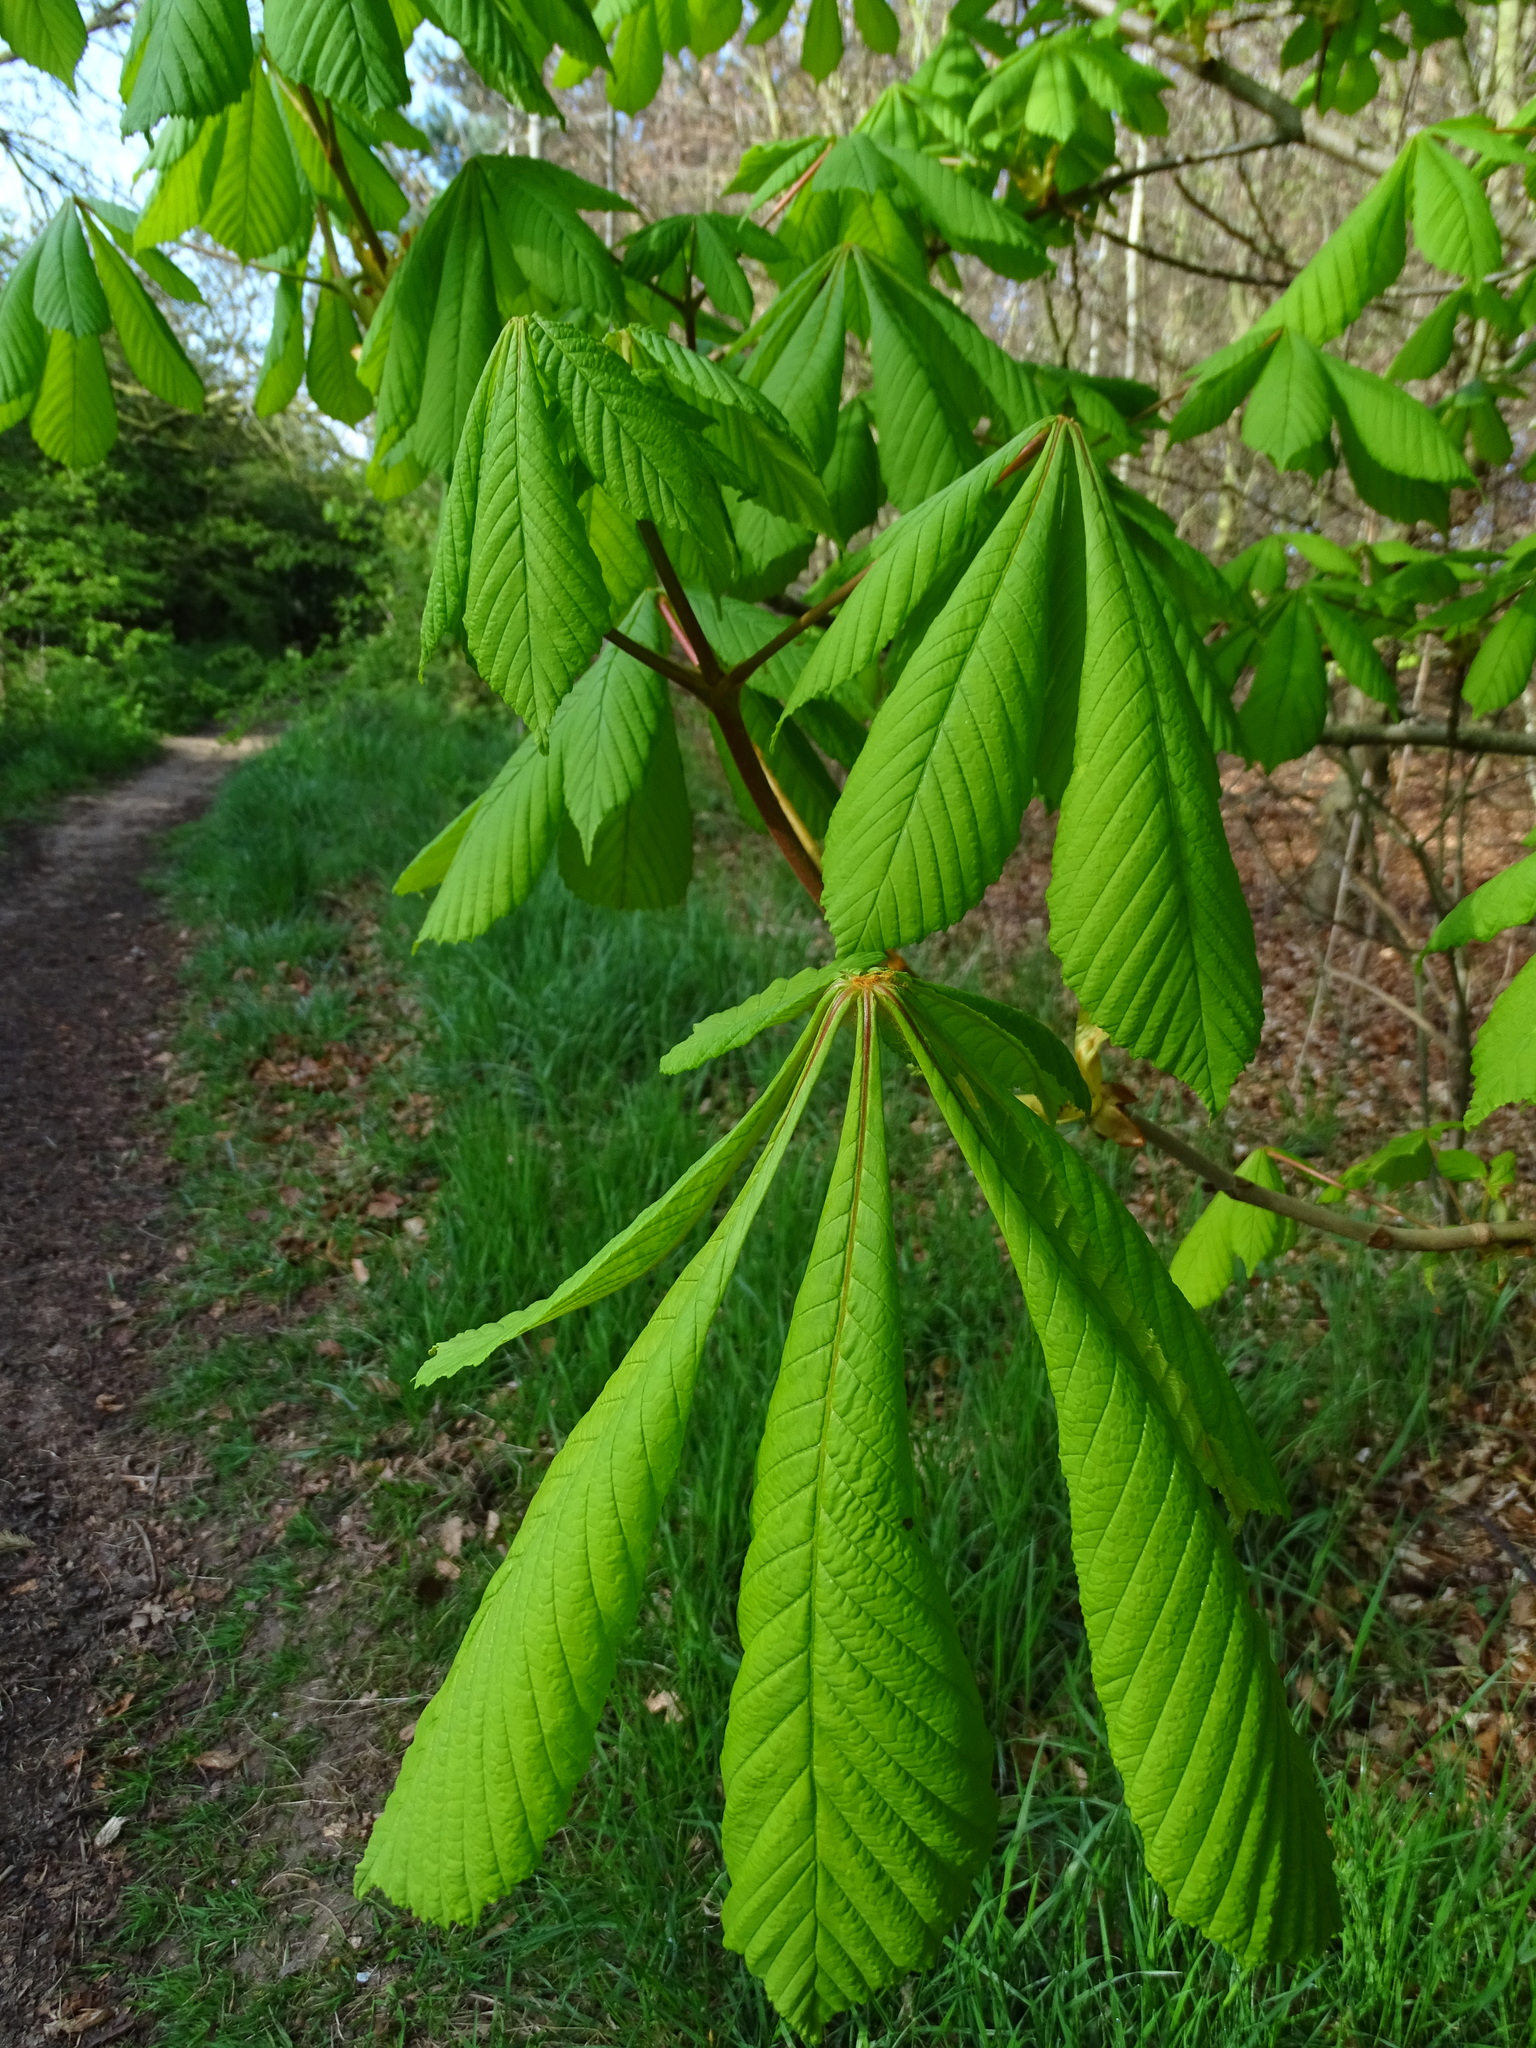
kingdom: Plantae
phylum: Tracheophyta
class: Magnoliopsida
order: Sapindales
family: Sapindaceae
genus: Aesculus
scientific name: Aesculus hippocastanum
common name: Horse-chestnut
